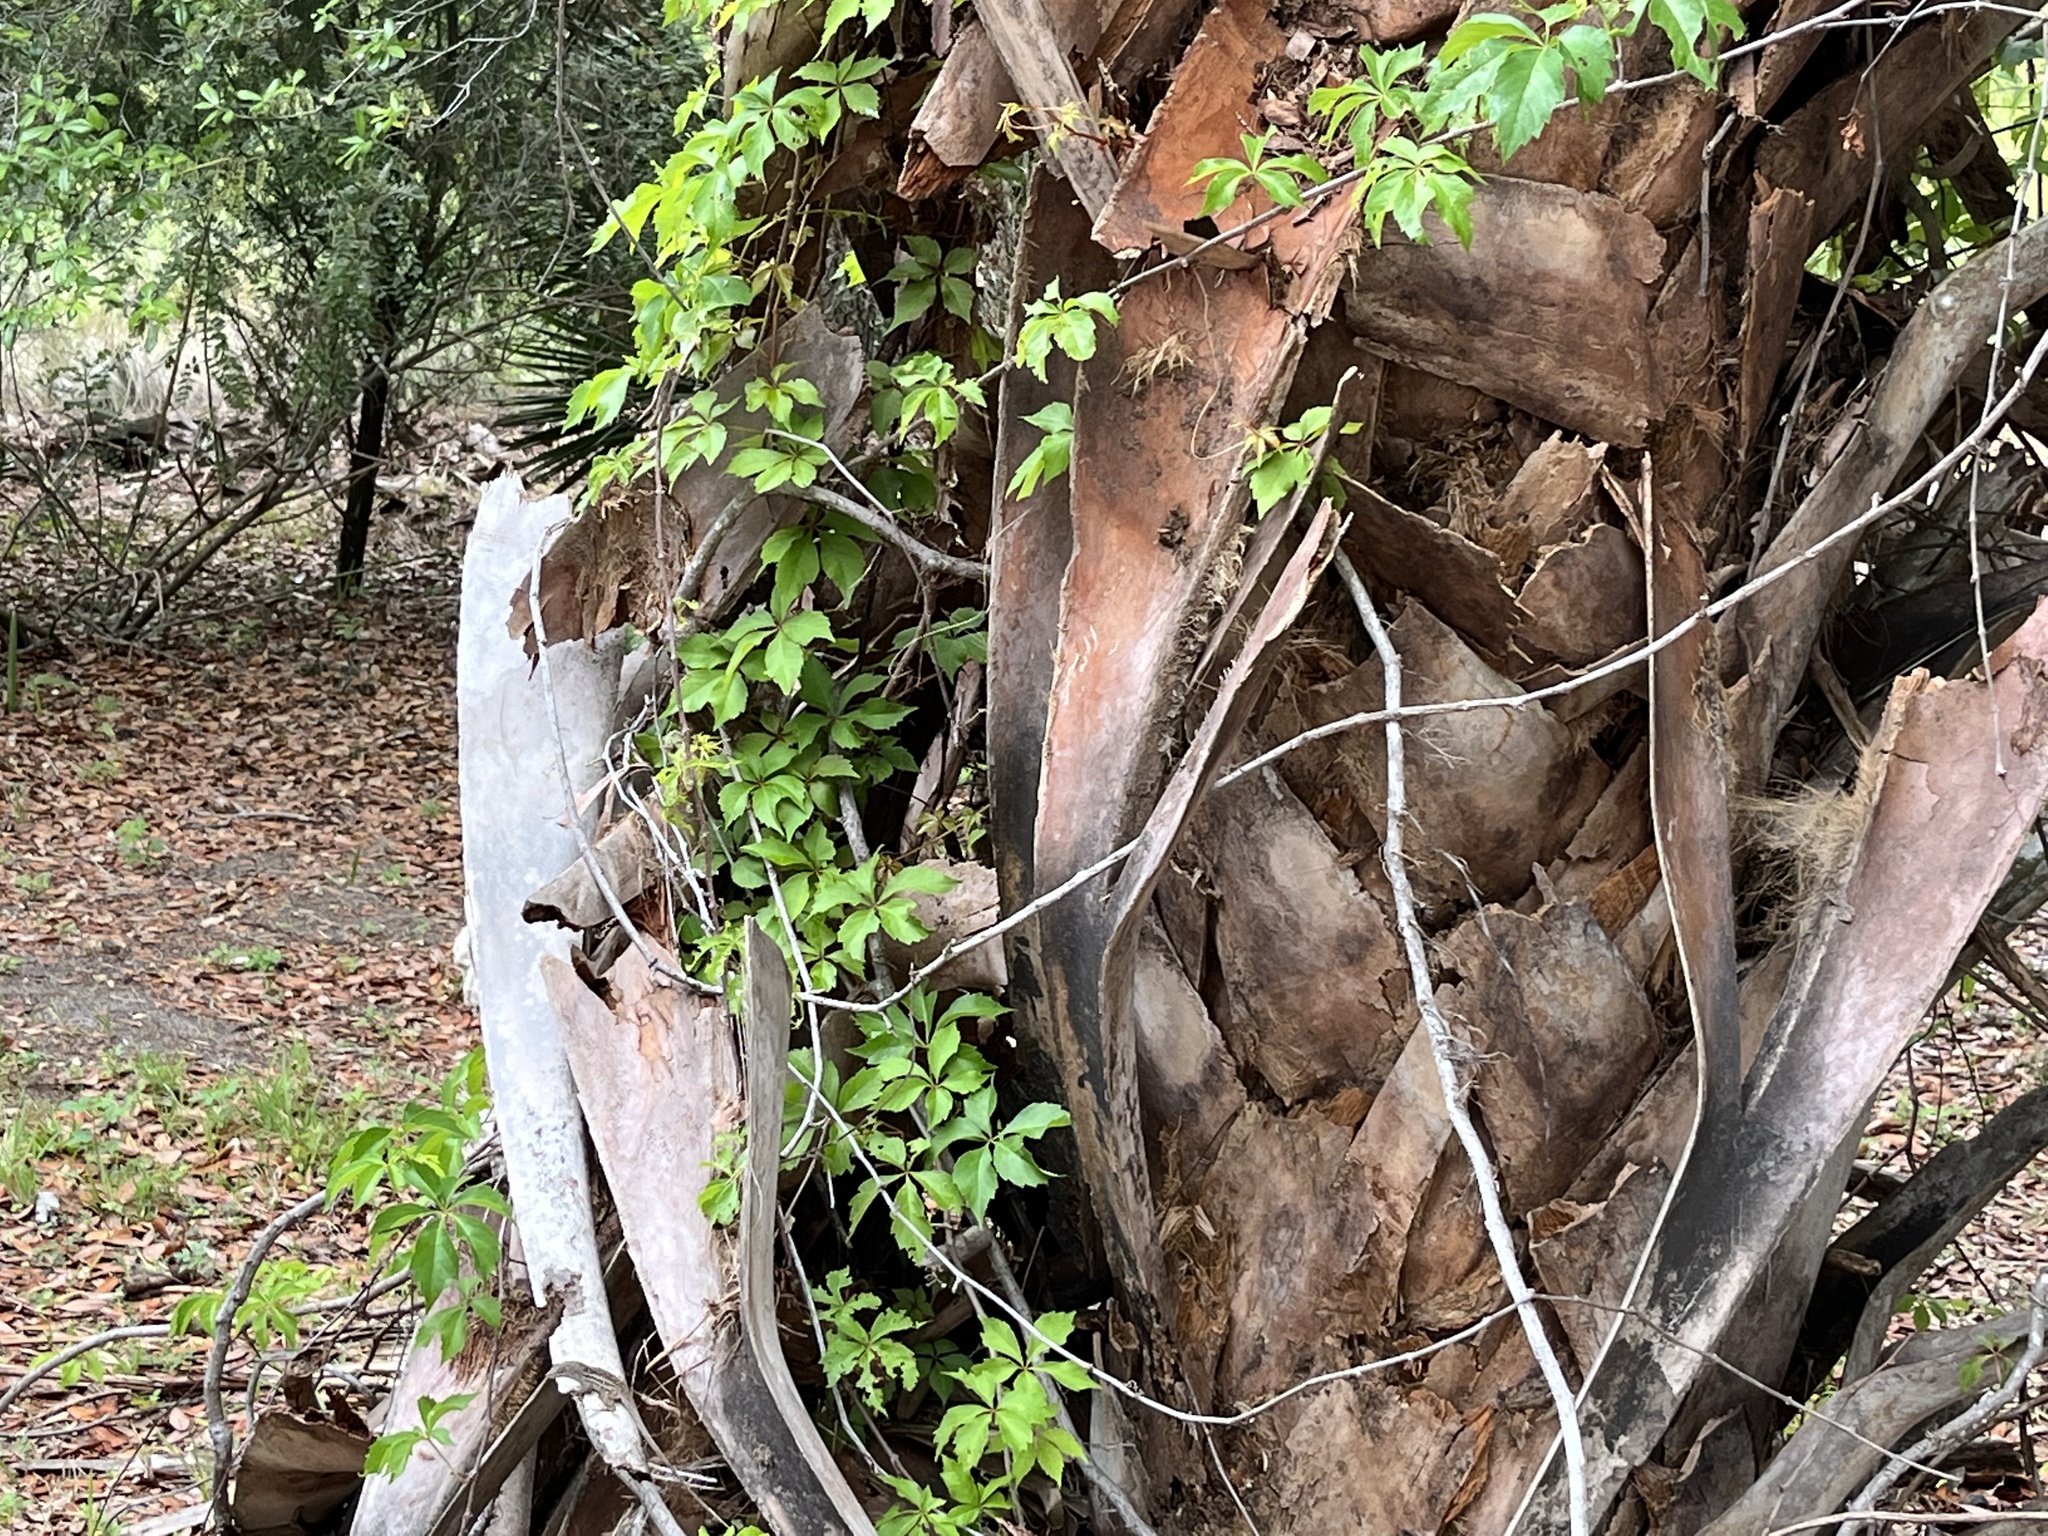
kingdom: Plantae
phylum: Tracheophyta
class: Magnoliopsida
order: Vitales
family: Vitaceae
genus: Parthenocissus
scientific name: Parthenocissus quinquefolia
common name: Virginia-creeper
